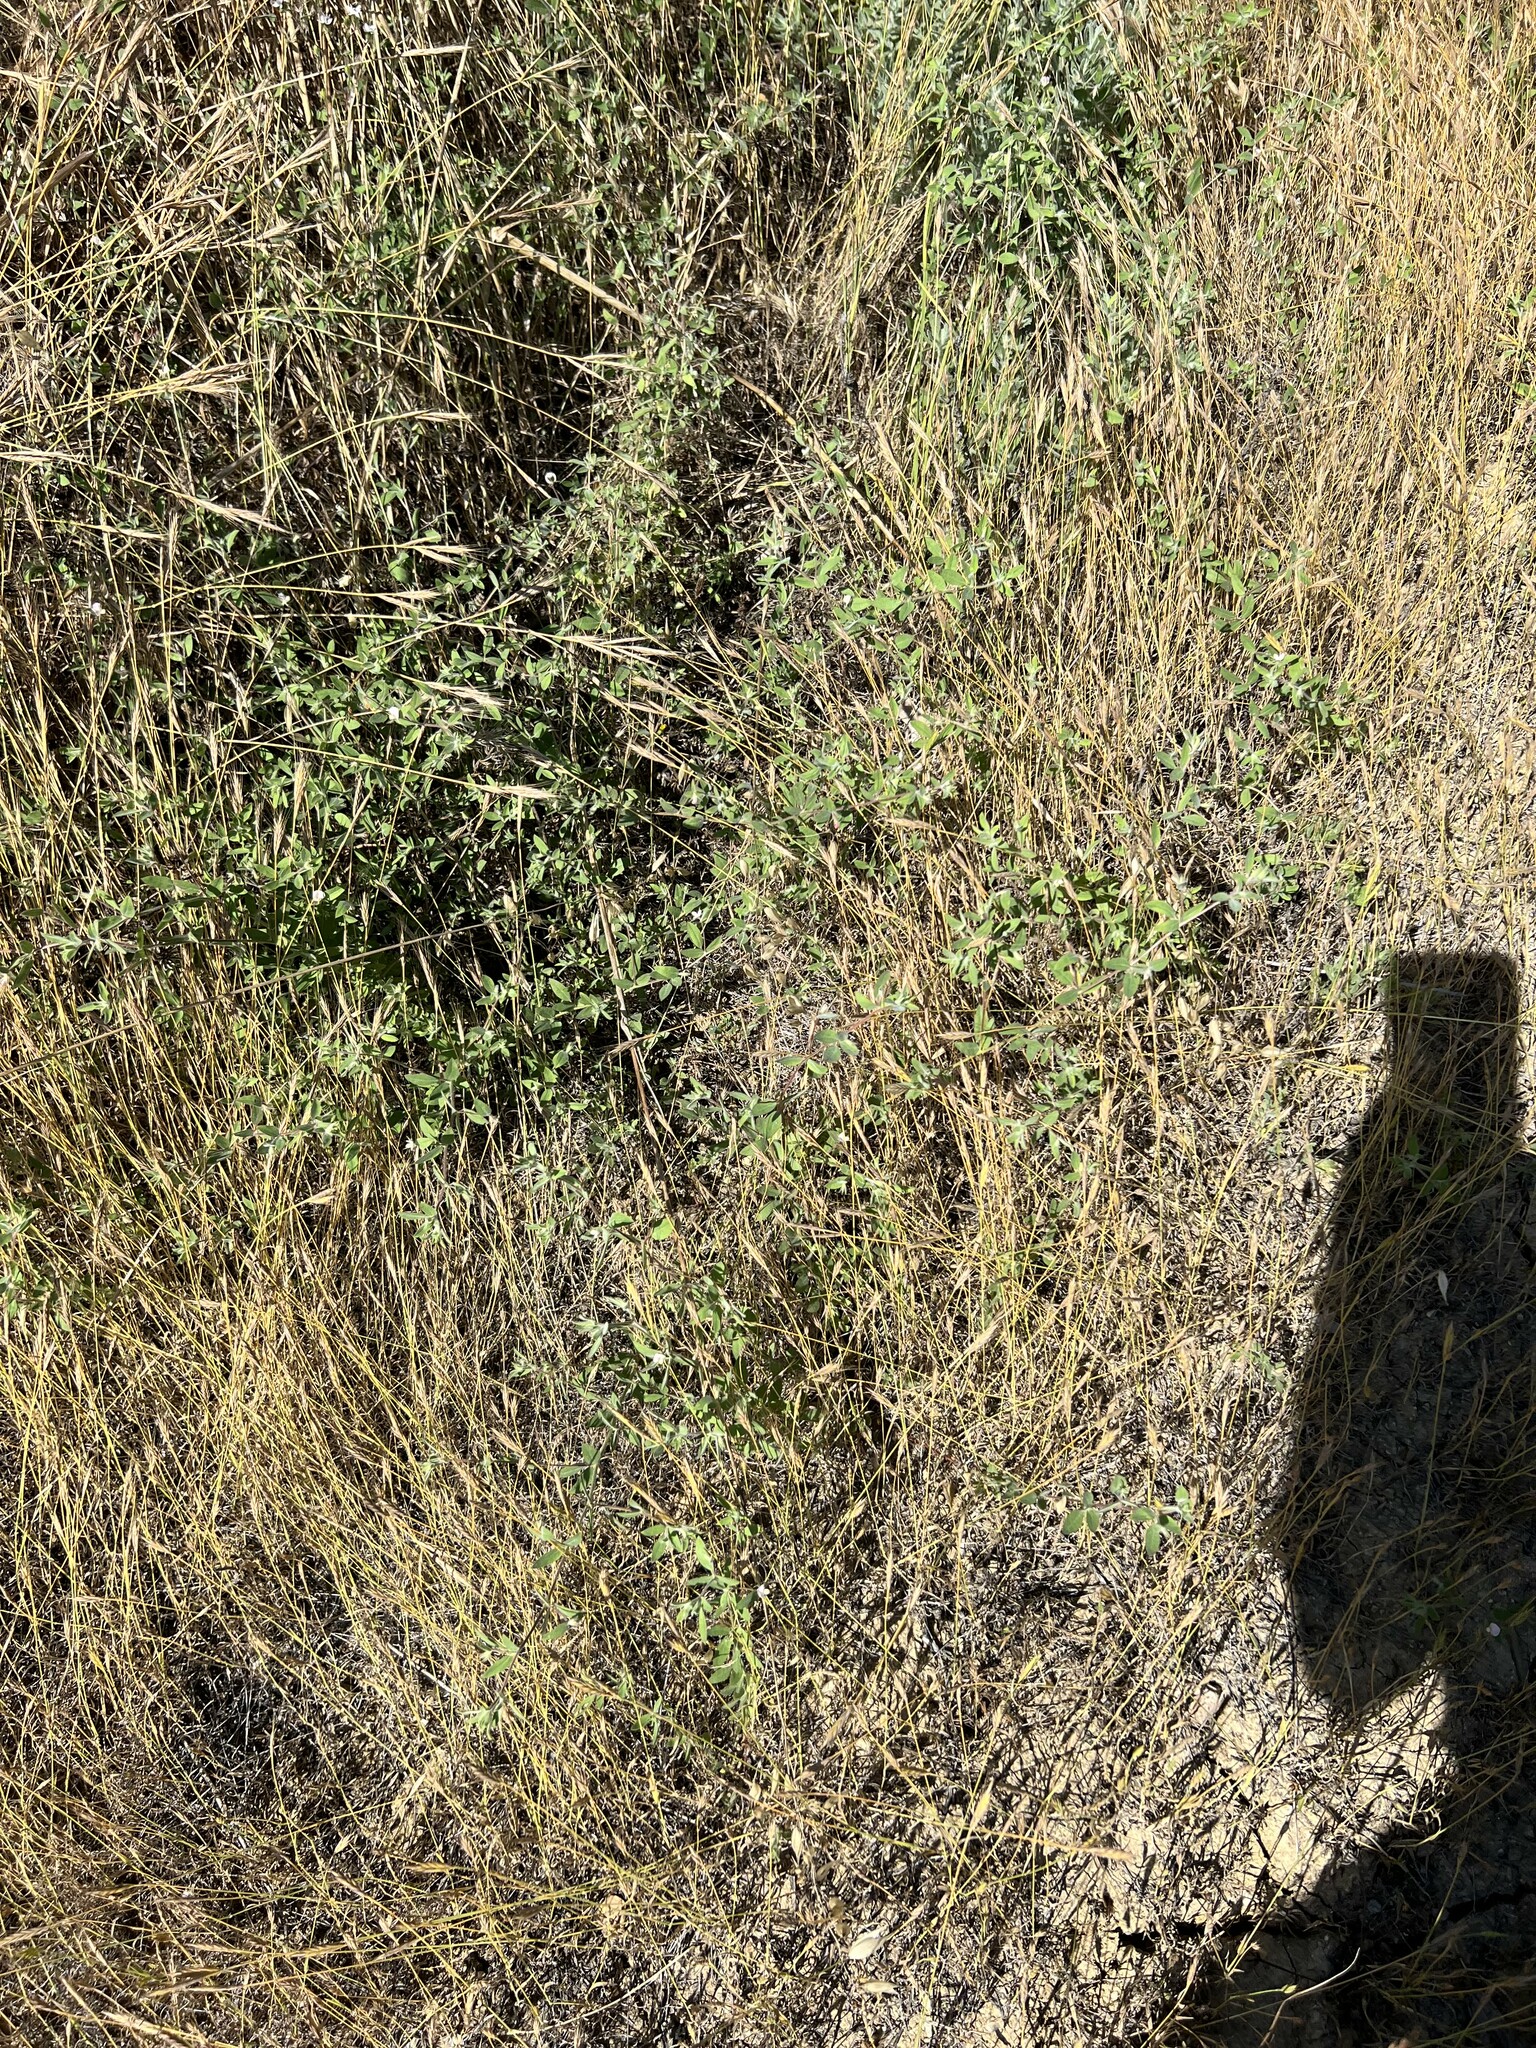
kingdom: Plantae
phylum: Tracheophyta
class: Magnoliopsida
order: Fabales
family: Fabaceae
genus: Acmispon
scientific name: Acmispon americanus
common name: American bird's-foot trefoil
